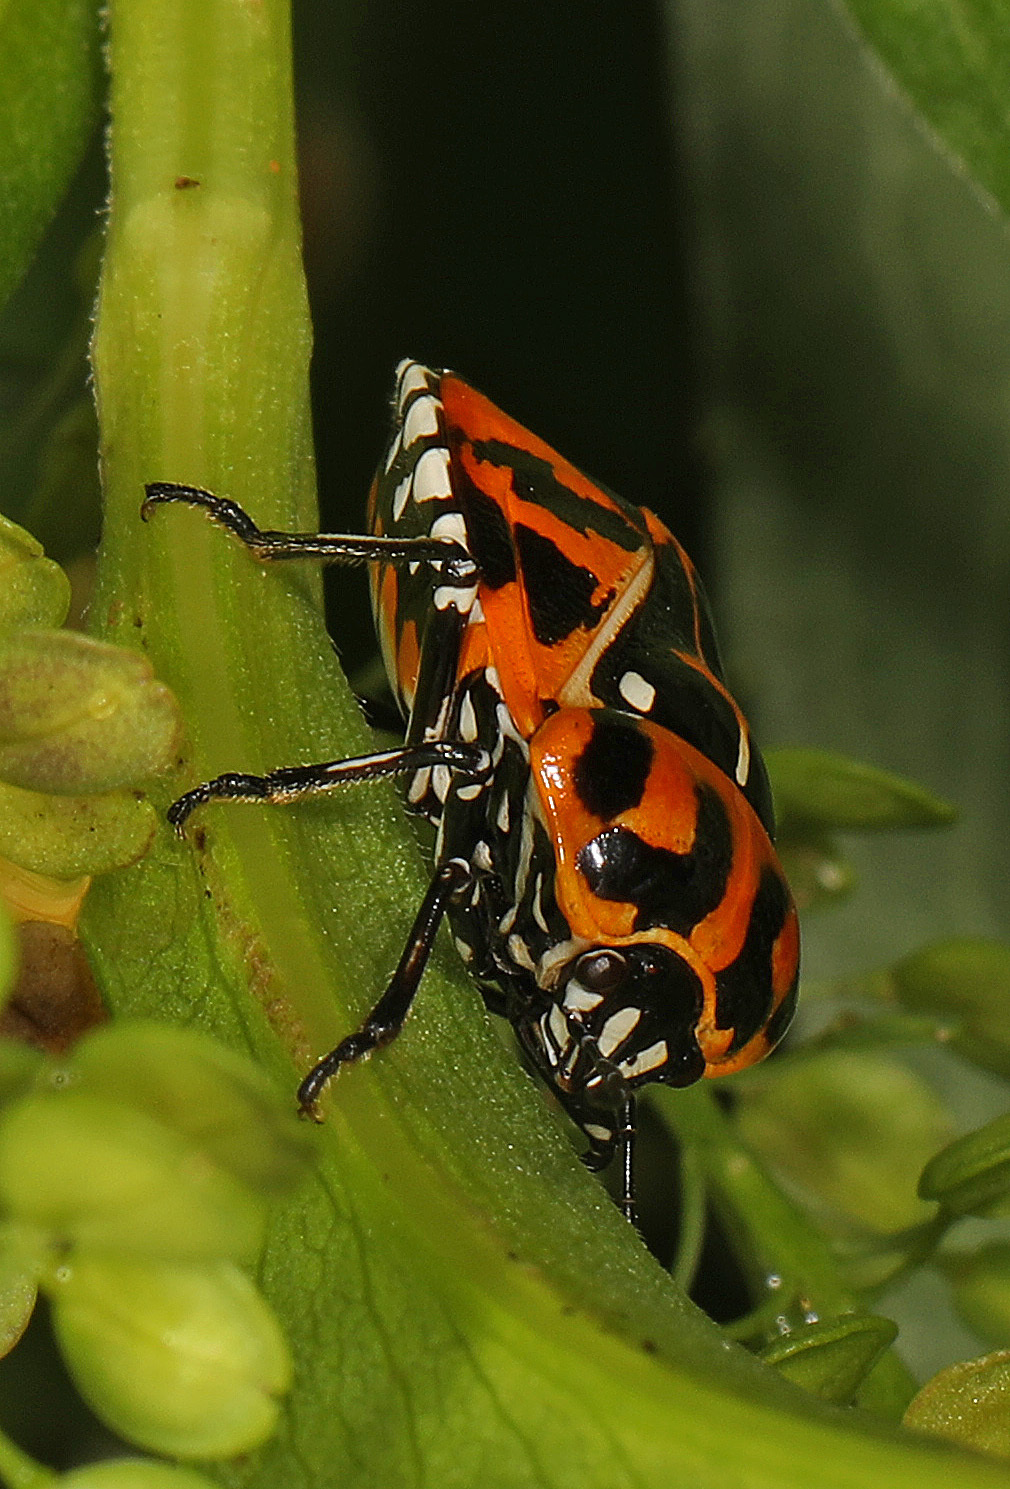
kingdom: Animalia
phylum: Arthropoda
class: Insecta
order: Hemiptera
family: Pentatomidae
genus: Murgantia
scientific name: Murgantia histrionica
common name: Harlequin bug
